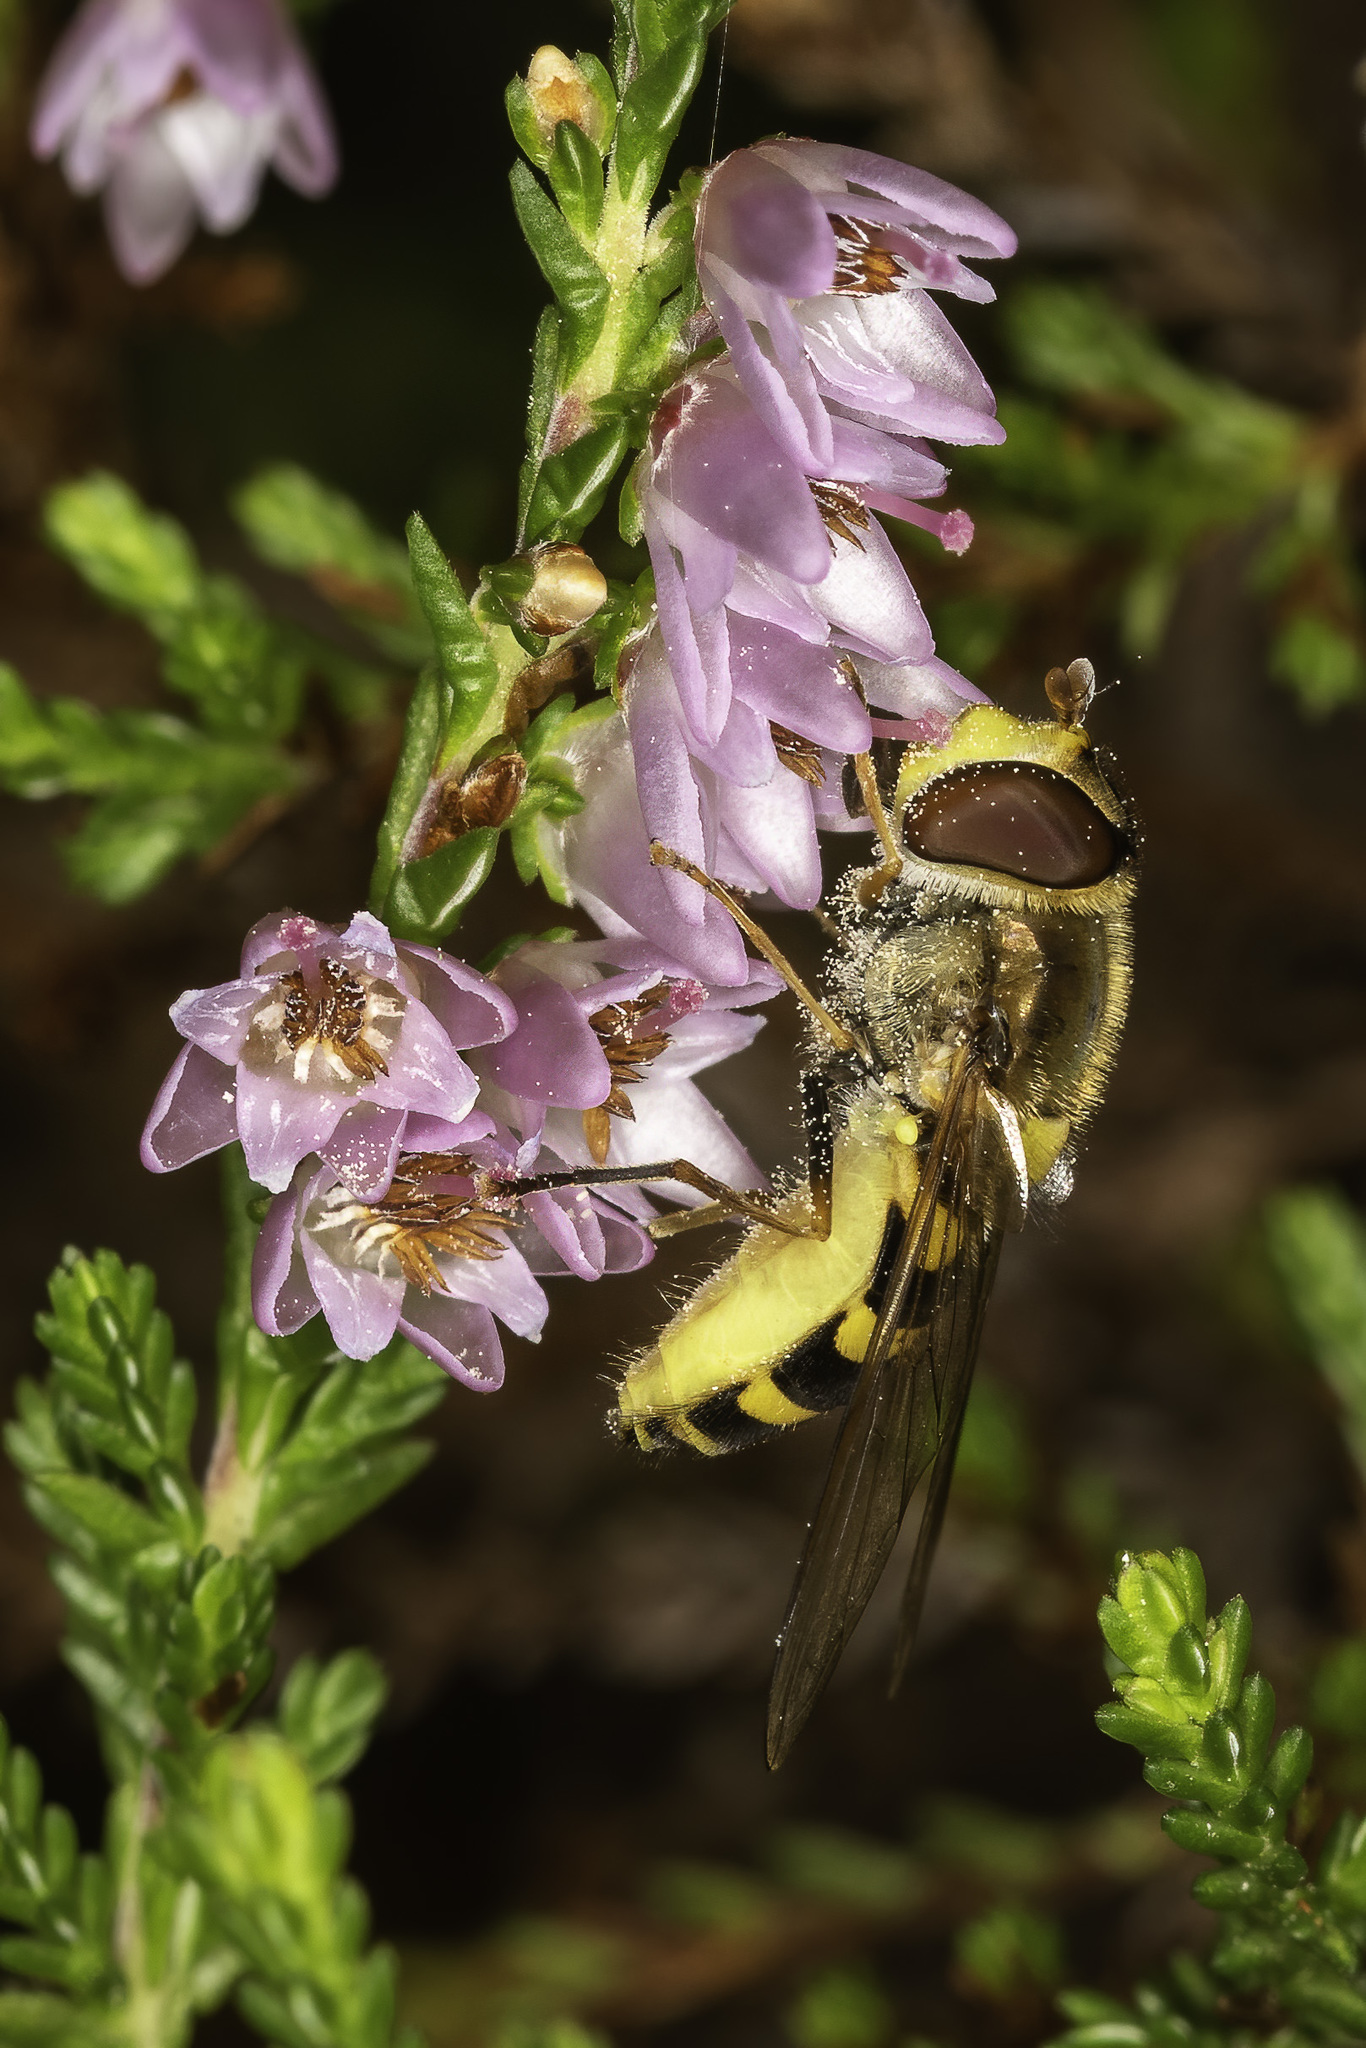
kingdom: Animalia
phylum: Arthropoda
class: Insecta
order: Diptera
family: Syrphidae
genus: Syrphus
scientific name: Syrphus
